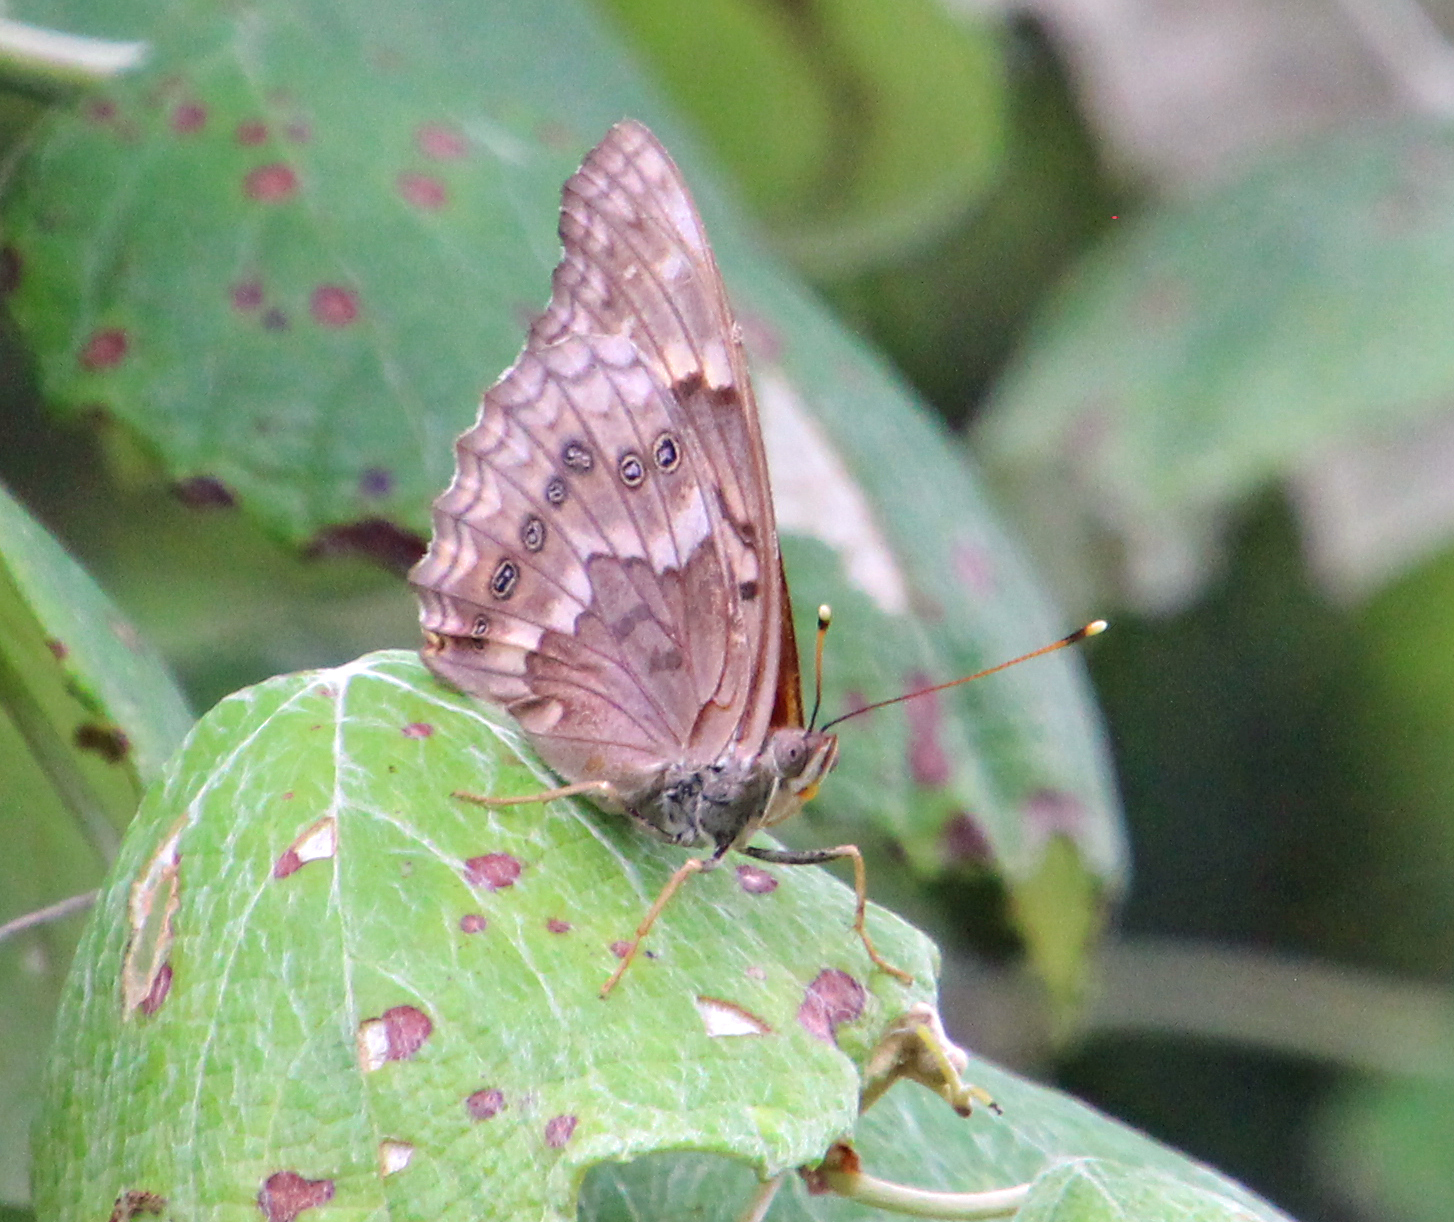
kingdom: Animalia
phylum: Arthropoda
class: Insecta
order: Lepidoptera
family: Nymphalidae
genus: Asterocampa
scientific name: Asterocampa clyton
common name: Tawny emperor
